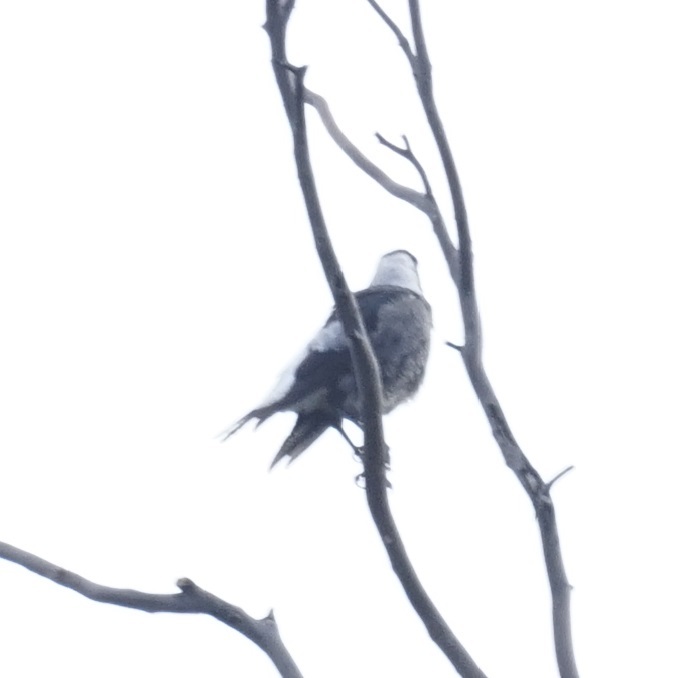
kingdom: Animalia
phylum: Chordata
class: Aves
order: Passeriformes
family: Cracticidae
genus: Gymnorhina
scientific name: Gymnorhina tibicen
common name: Australian magpie
